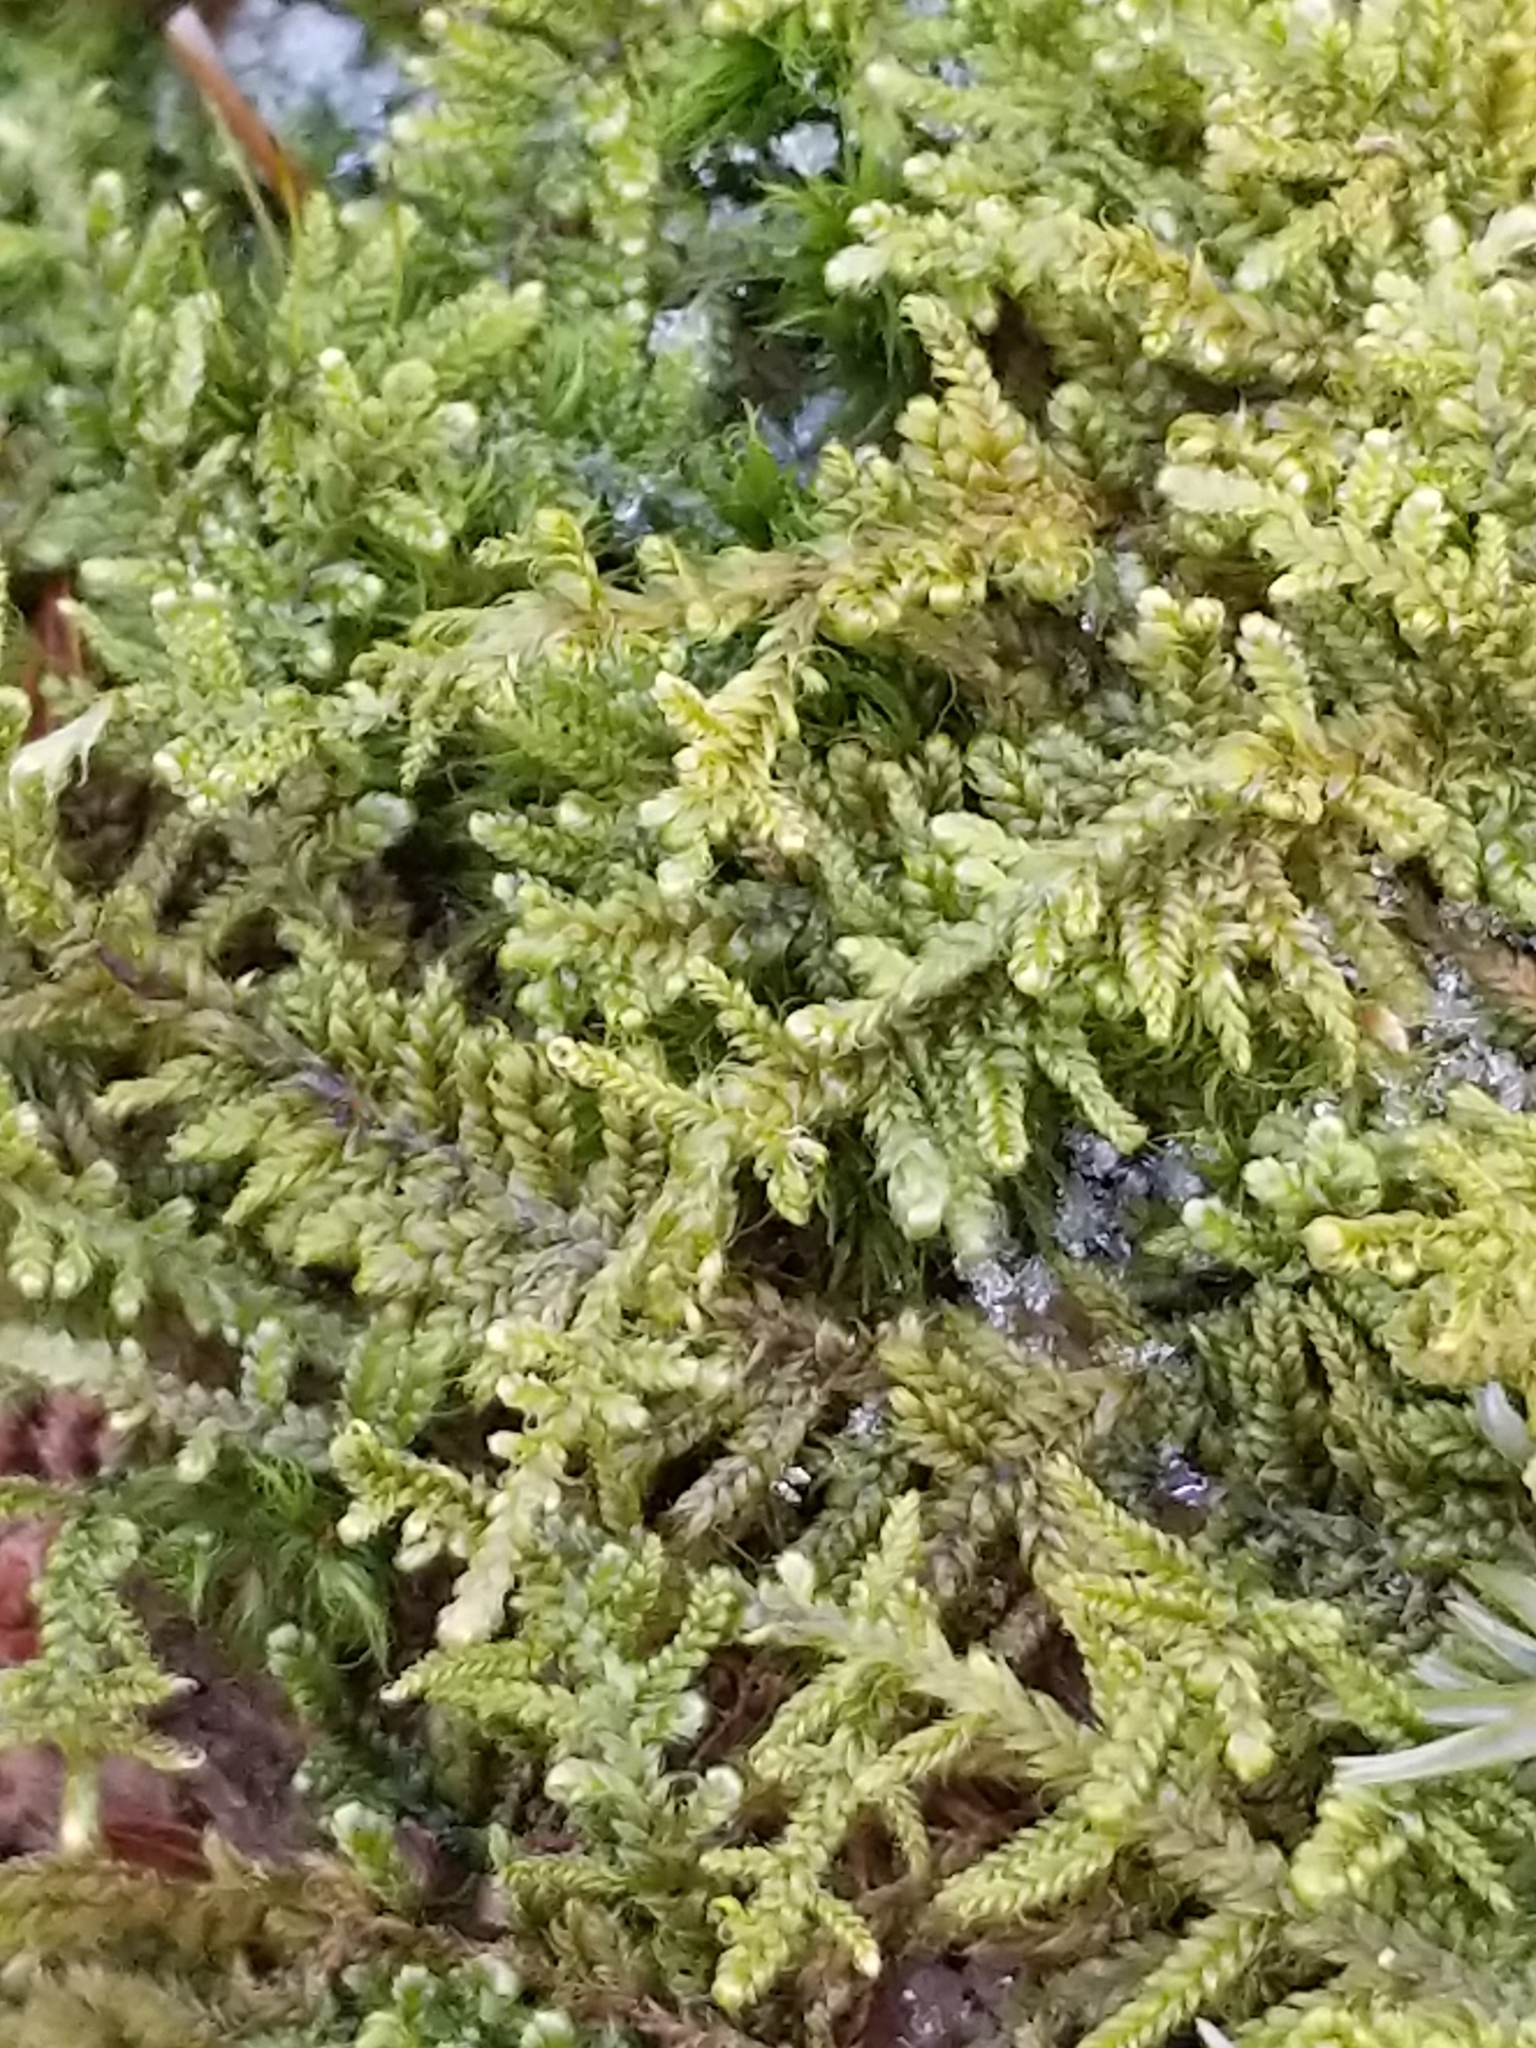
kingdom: Plantae
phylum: Bryophyta
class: Bryopsida
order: Hypnales
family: Callicladiaceae
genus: Callicladium
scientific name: Callicladium imponens
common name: Brocade moss
